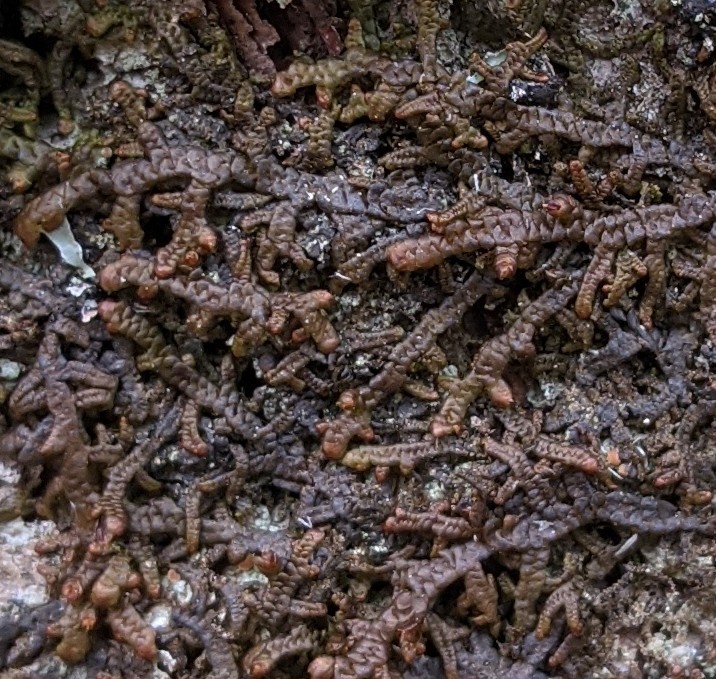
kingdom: Plantae
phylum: Marchantiophyta
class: Jungermanniopsida
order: Porellales
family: Frullaniaceae
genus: Frullania
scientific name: Frullania asagrayana
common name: Asa gray s scalewort
